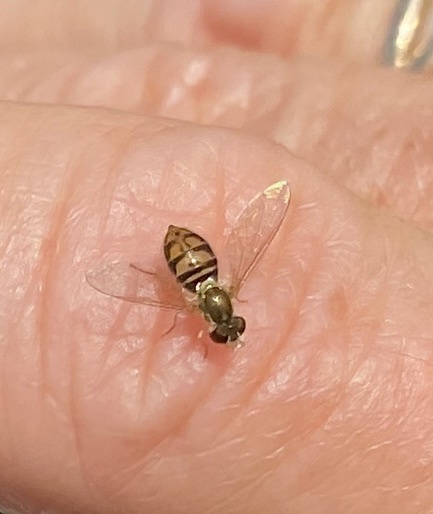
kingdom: Animalia
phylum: Arthropoda
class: Insecta
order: Diptera
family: Syrphidae
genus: Toxomerus
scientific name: Toxomerus marginatus
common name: Syrphid fly
